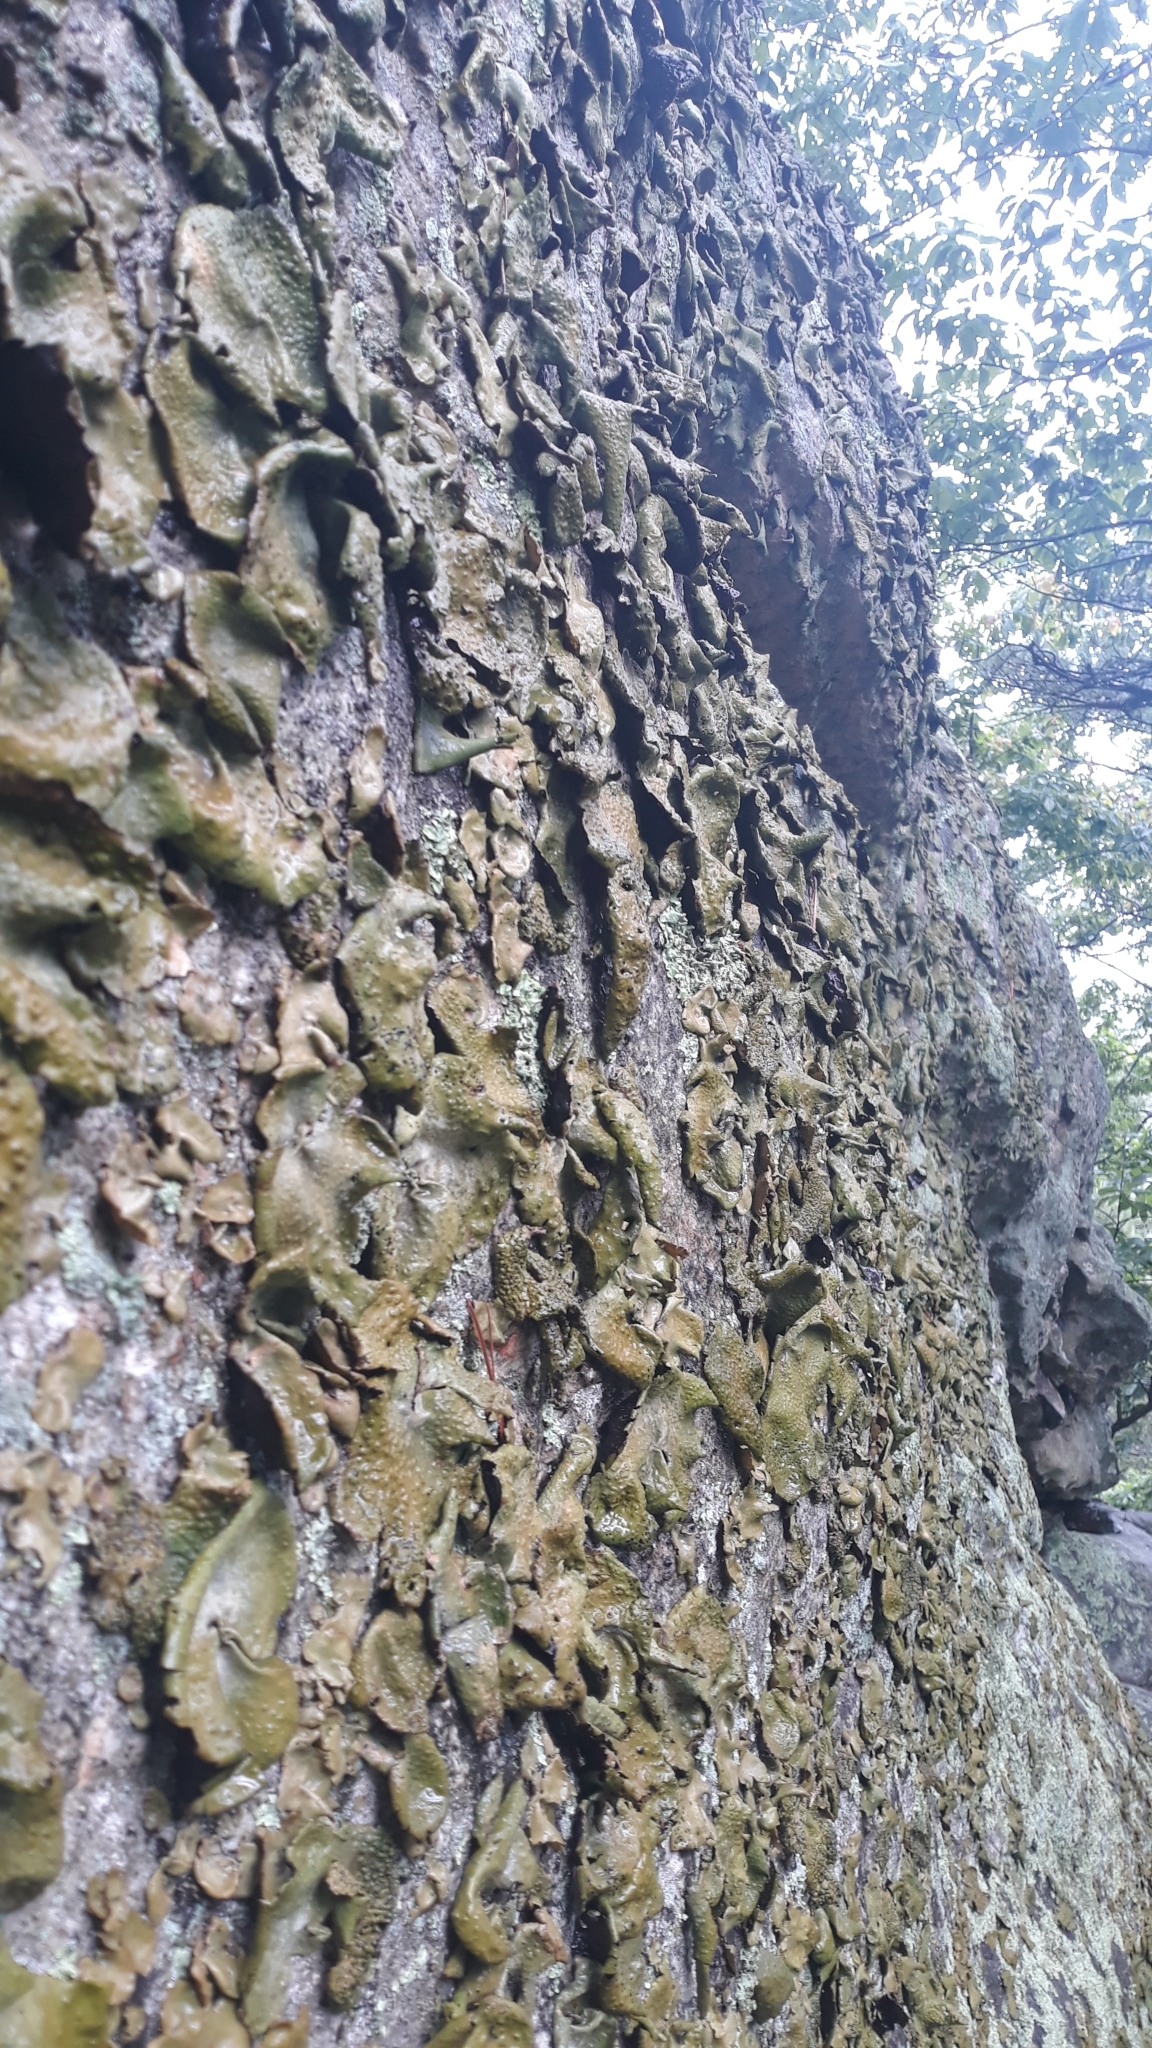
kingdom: Fungi
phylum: Ascomycota
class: Lecanoromycetes
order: Umbilicariales
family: Umbilicariaceae
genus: Umbilicaria
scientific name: Umbilicaria mammulata
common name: Smooth rock tripe
